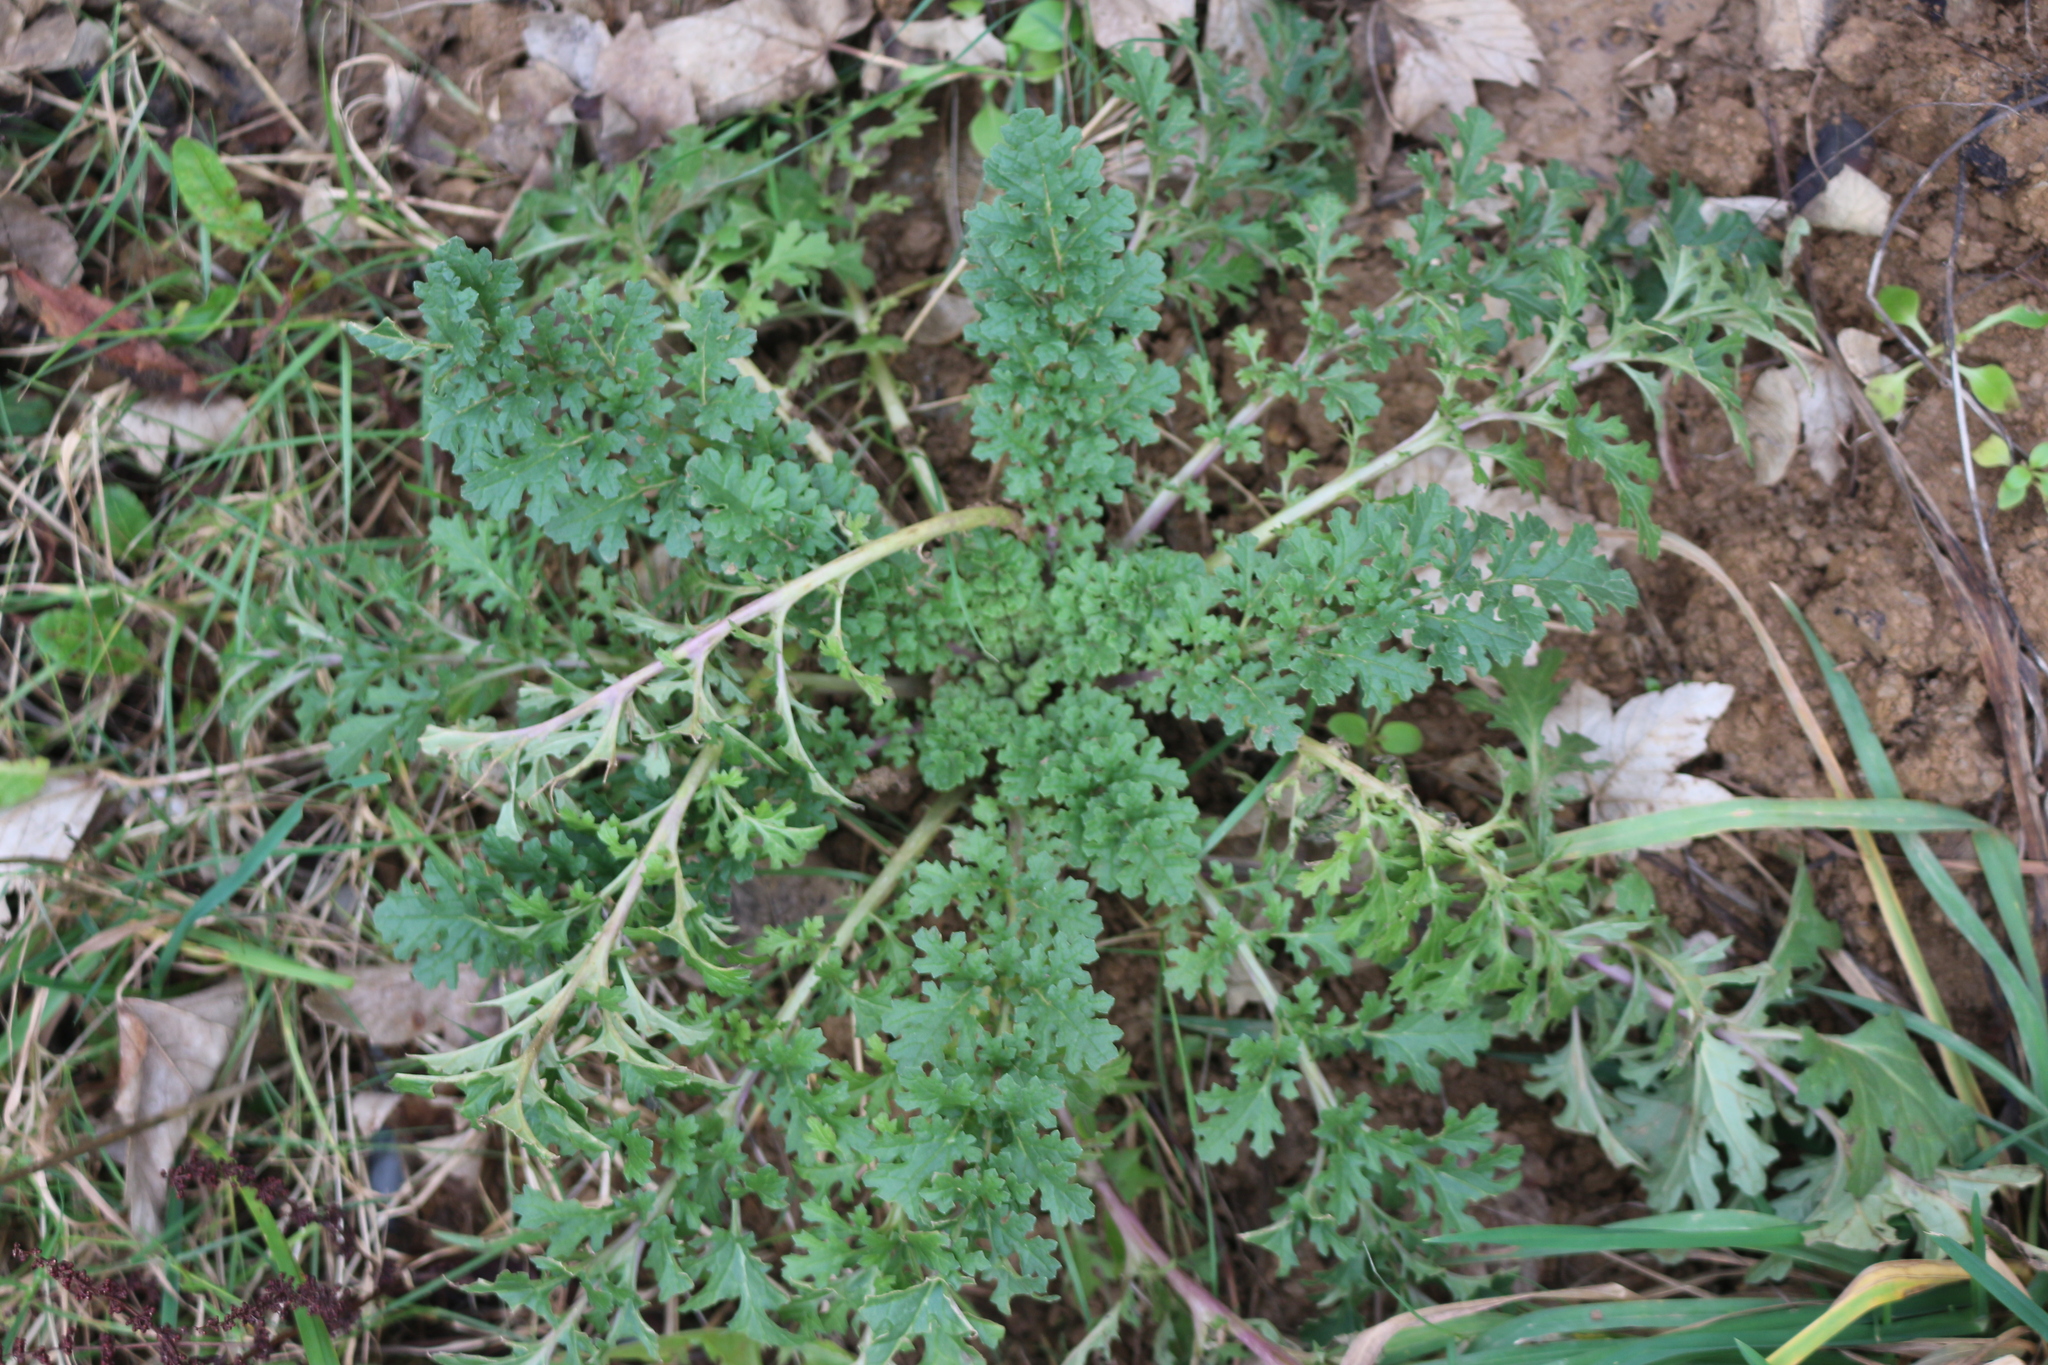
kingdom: Plantae
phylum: Tracheophyta
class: Magnoliopsida
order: Asterales
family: Asteraceae
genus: Jacobaea
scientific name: Jacobaea vulgaris
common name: Stinking willie
